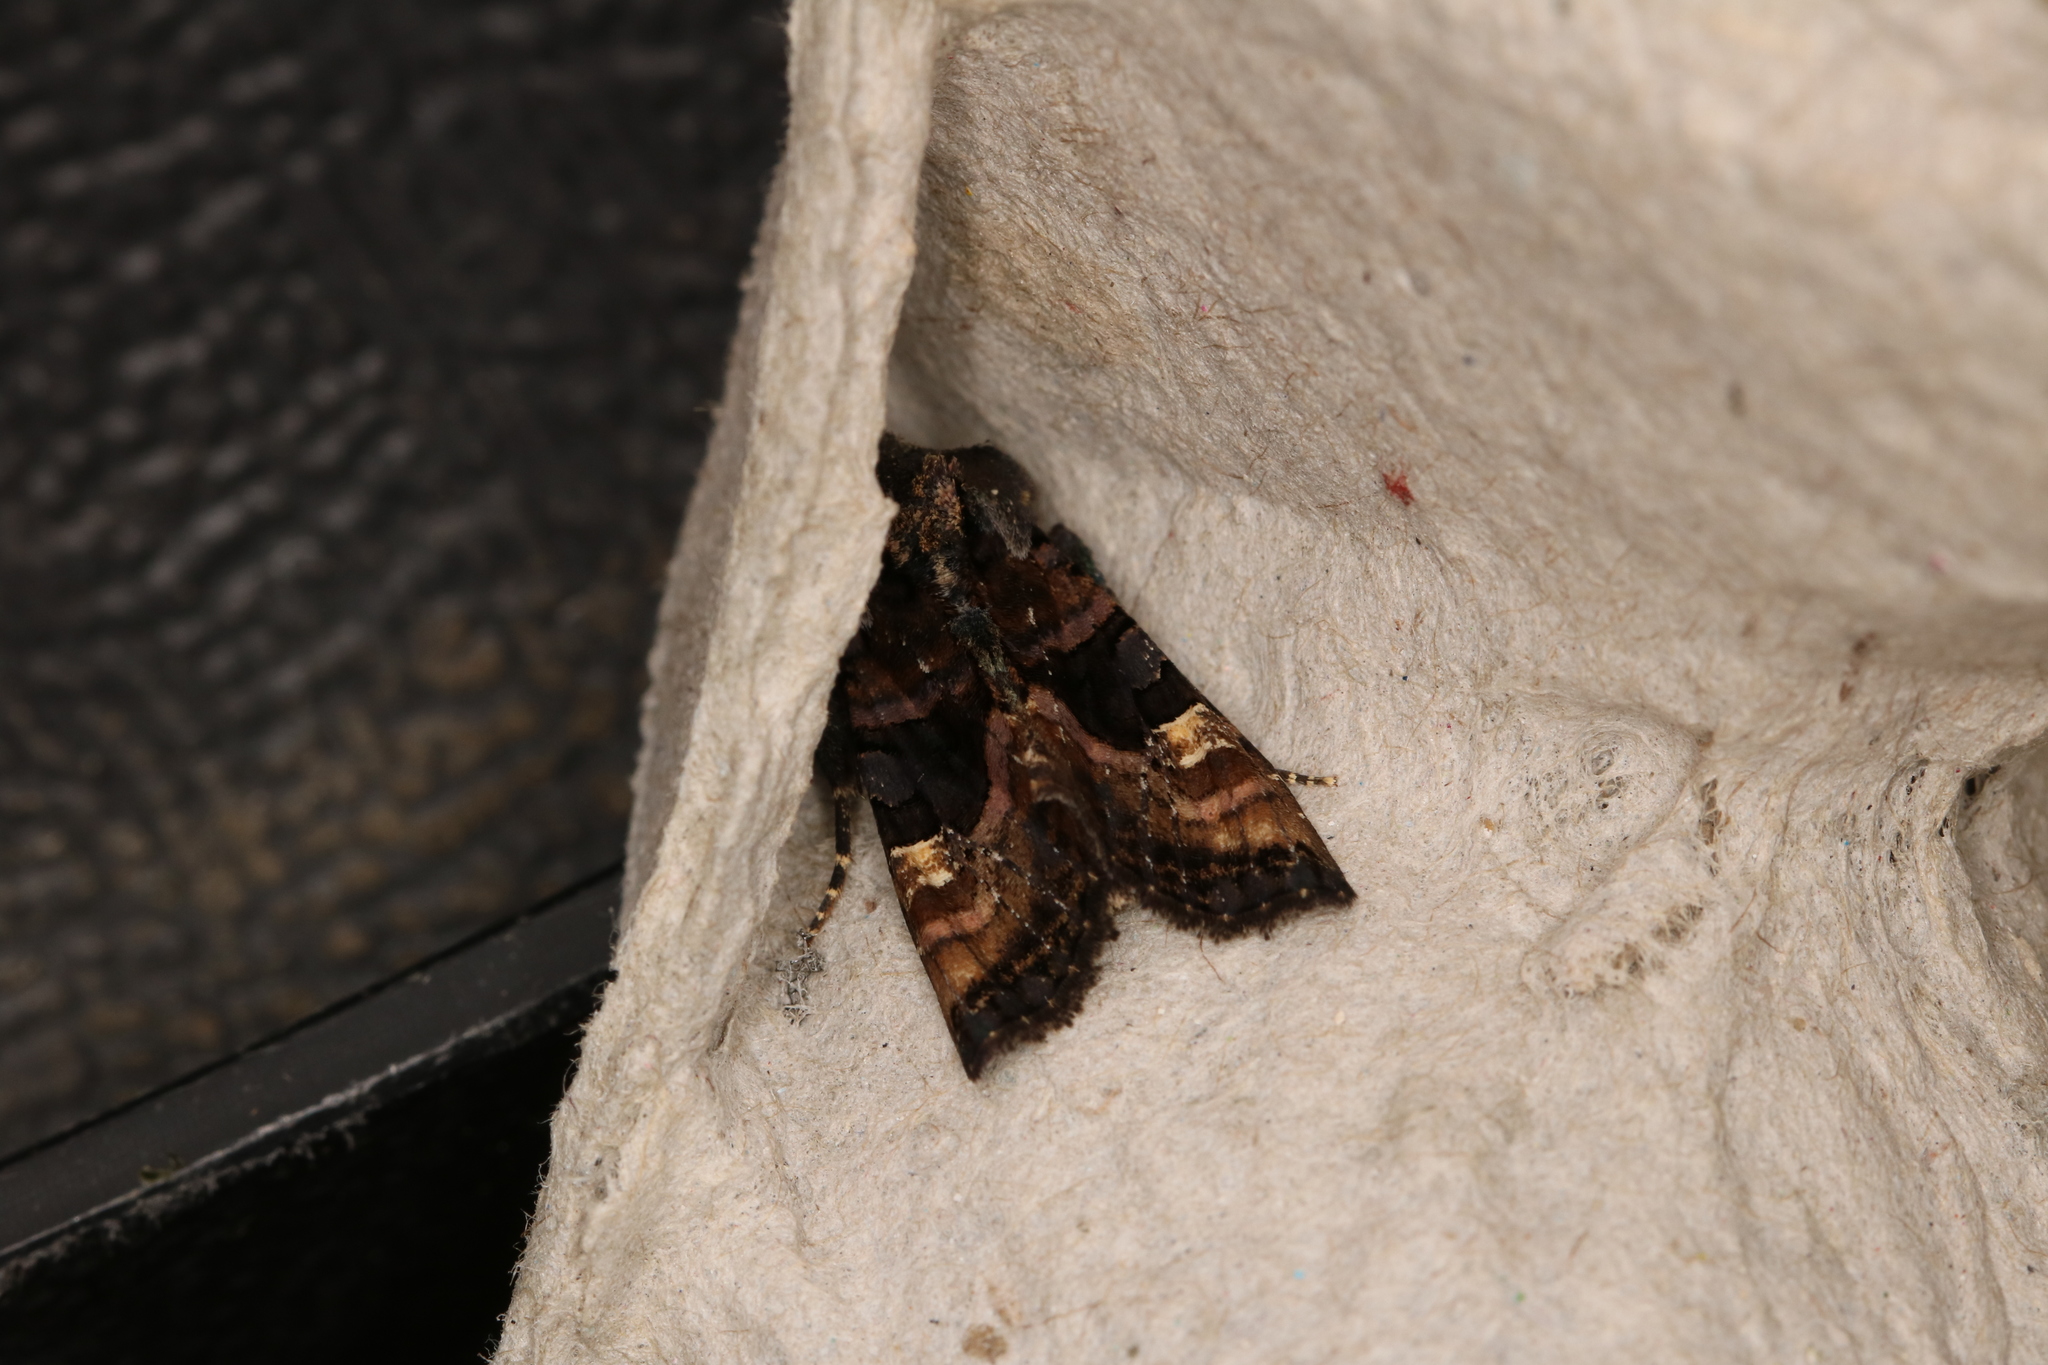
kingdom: Animalia
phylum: Arthropoda
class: Insecta
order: Lepidoptera
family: Noctuidae
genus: Euplexia
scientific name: Euplexia lucipara
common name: Small angle shades
